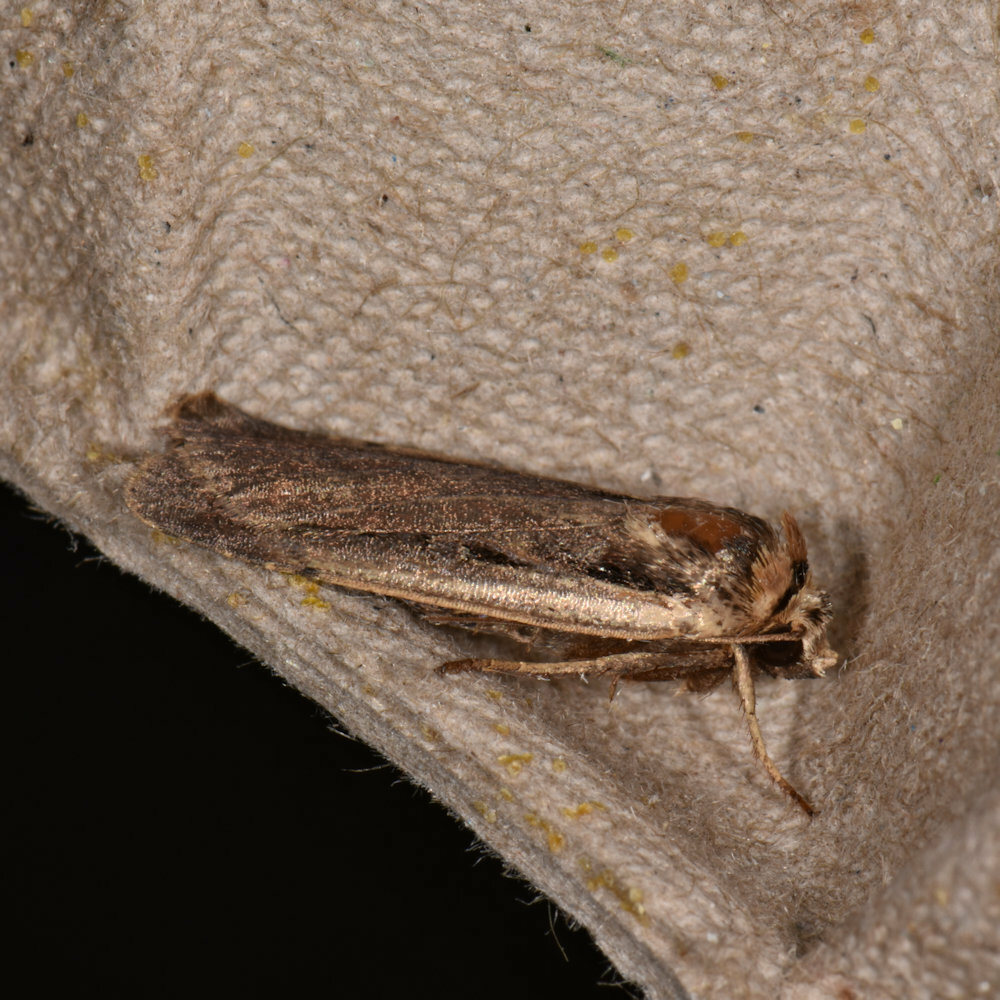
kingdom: Animalia
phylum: Arthropoda
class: Insecta
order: Lepidoptera
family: Noctuidae
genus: Ochropleura
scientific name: Ochropleura implecta
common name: Flame-shouldered dart
